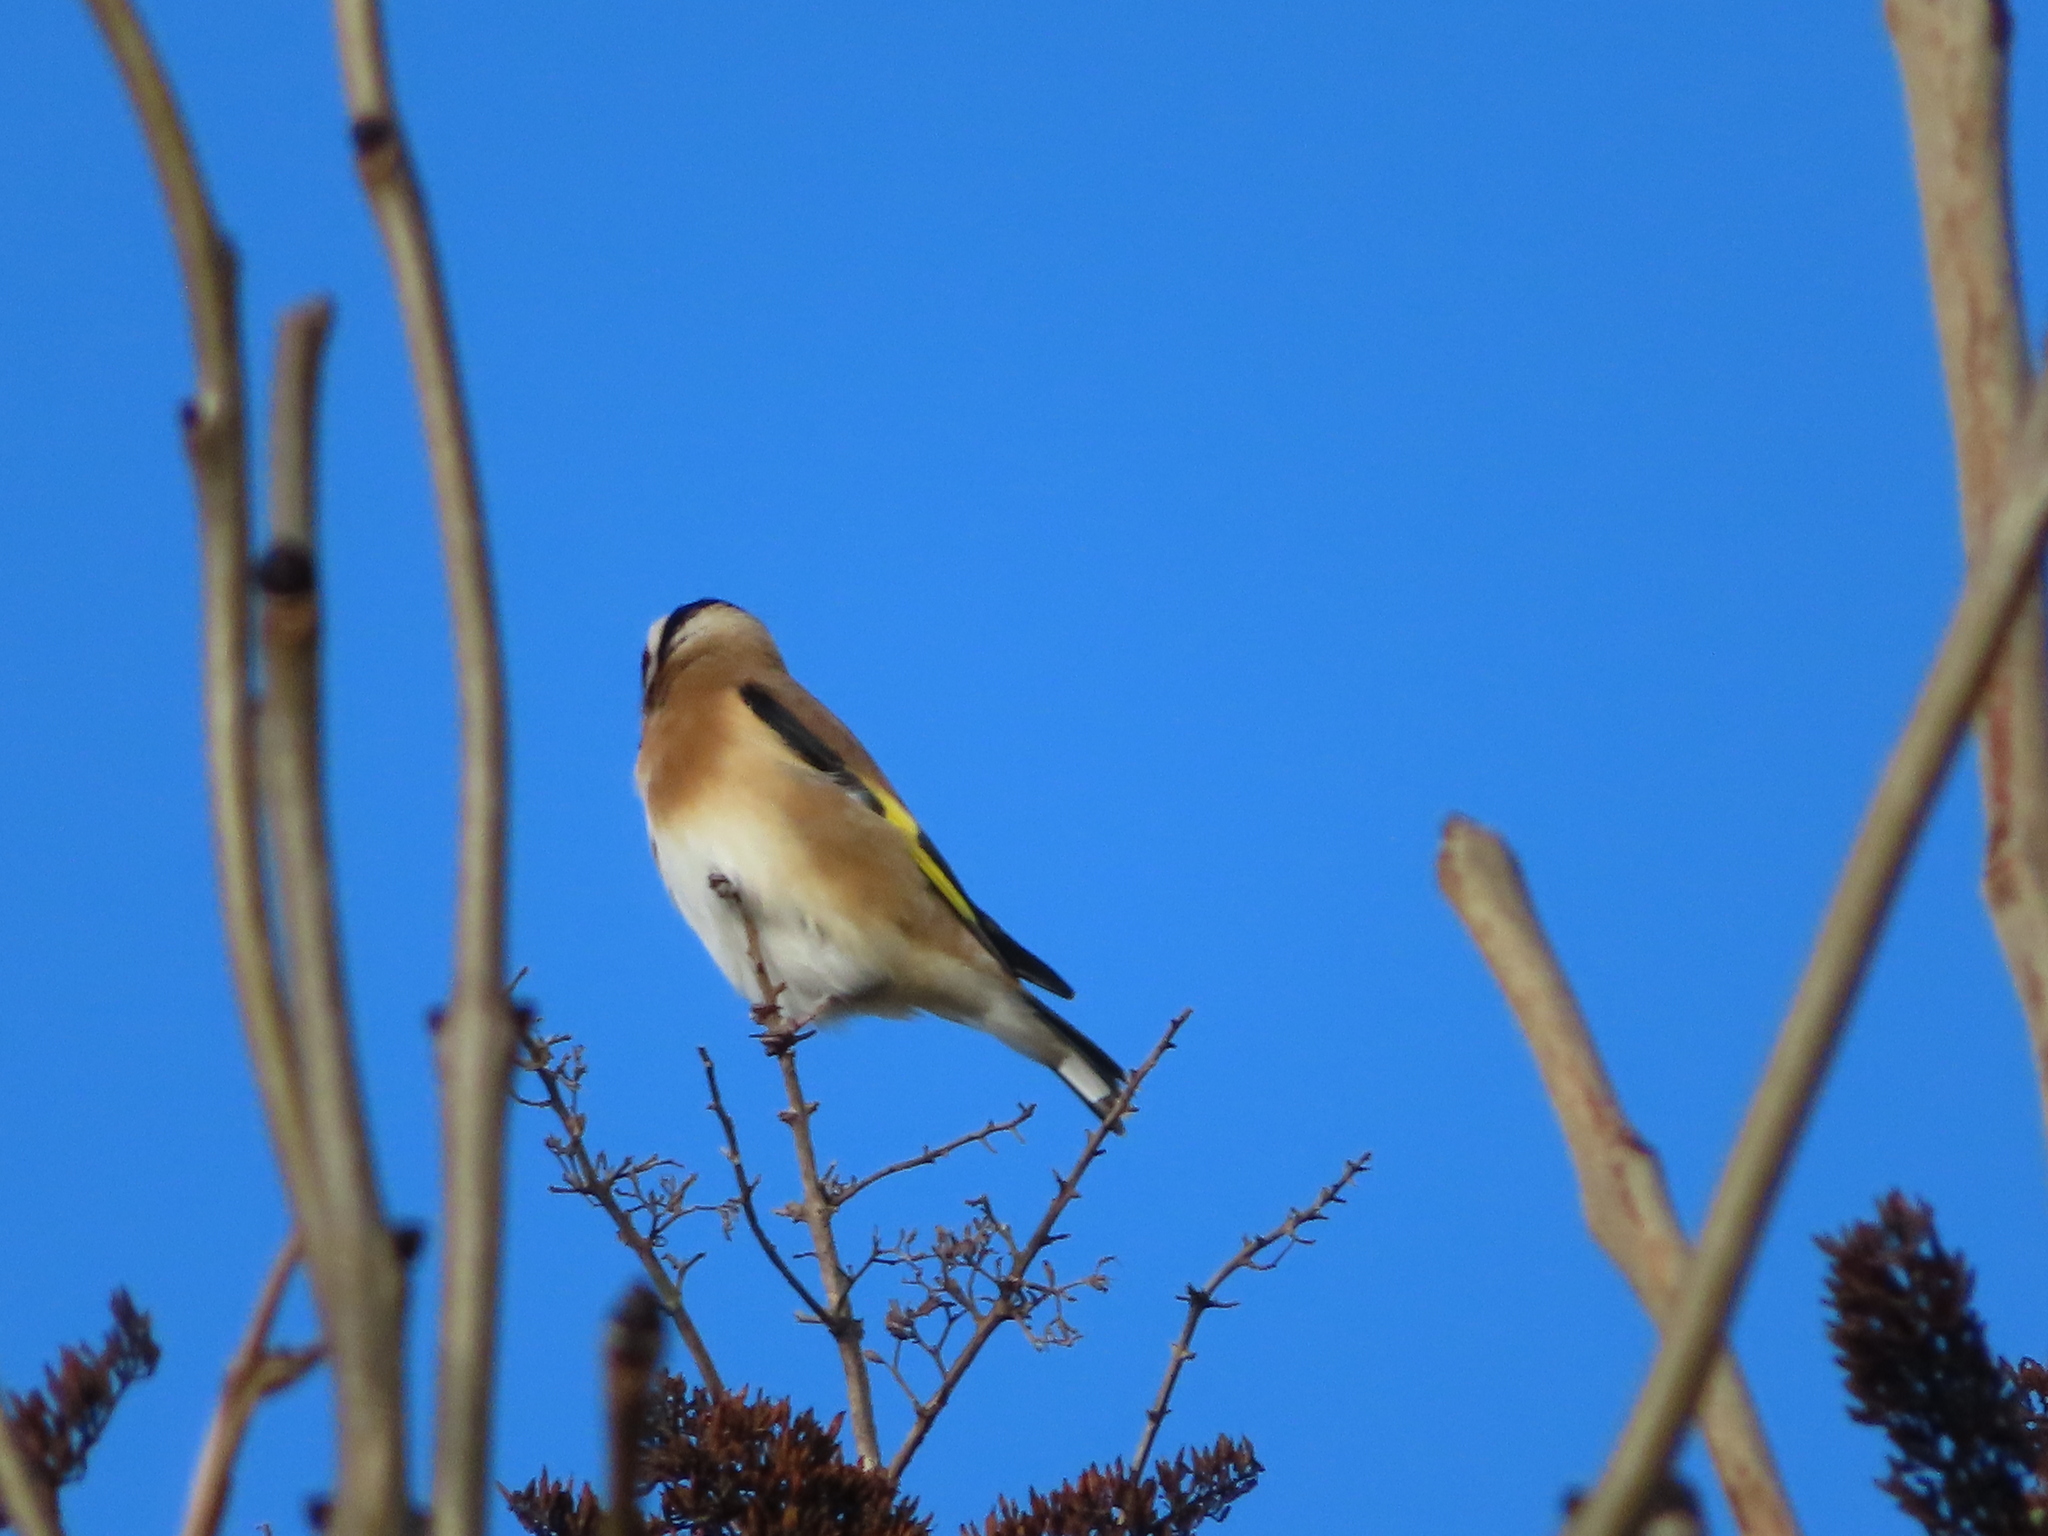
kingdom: Animalia
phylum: Chordata
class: Aves
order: Passeriformes
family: Fringillidae
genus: Carduelis
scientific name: Carduelis carduelis
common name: European goldfinch
